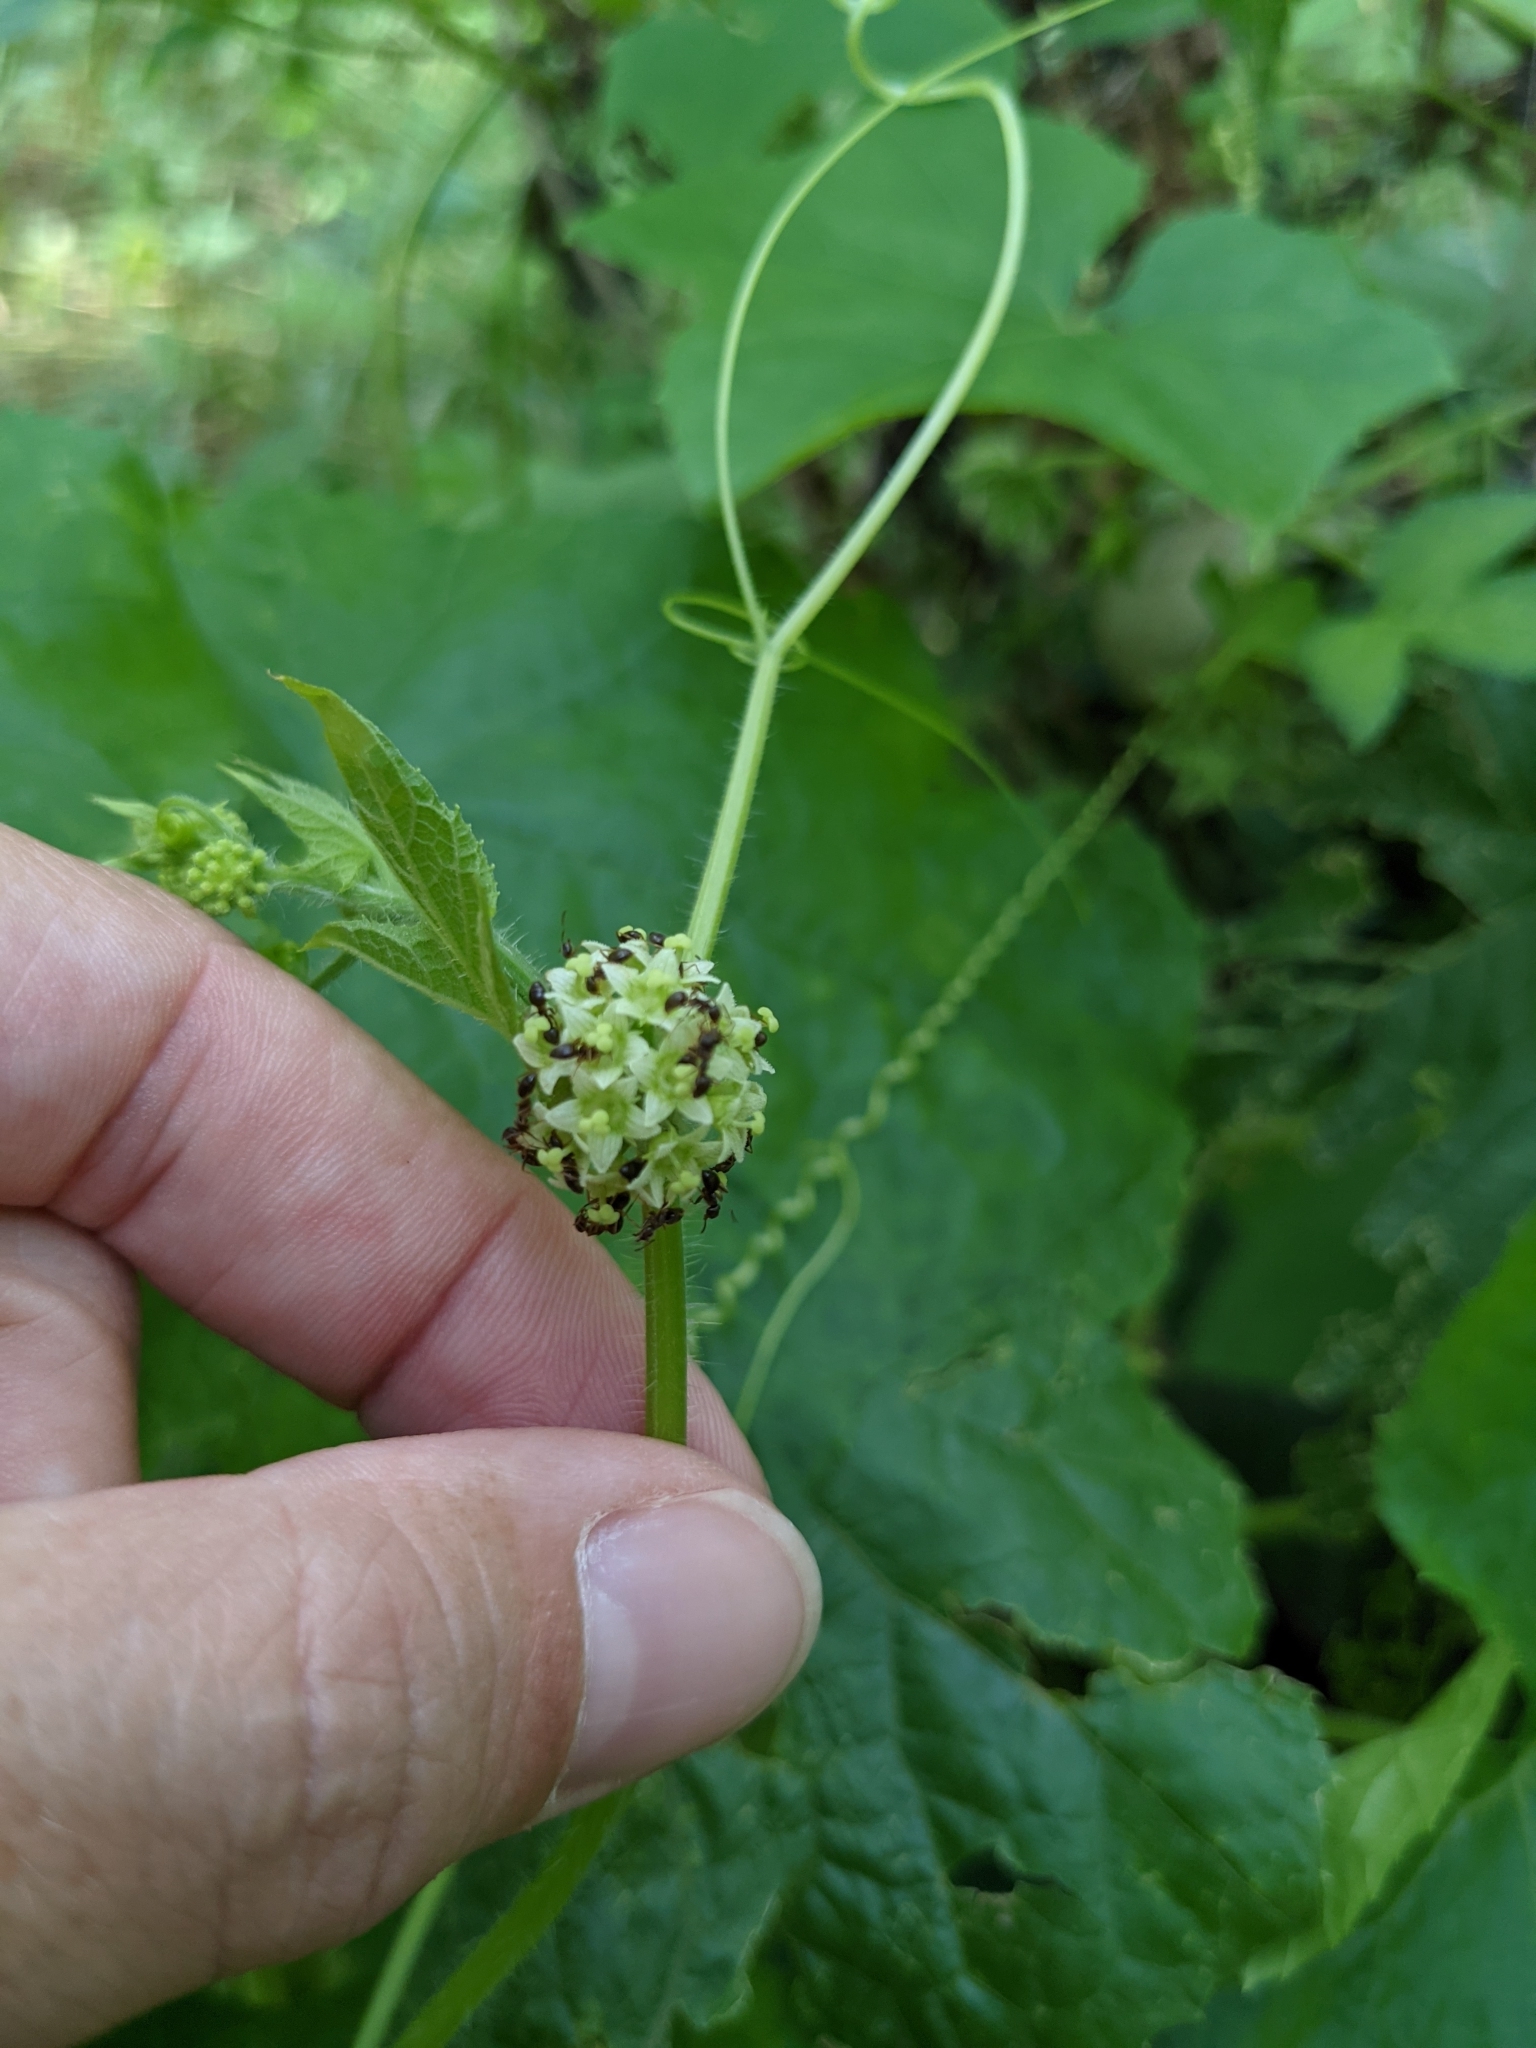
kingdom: Plantae
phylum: Tracheophyta
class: Magnoliopsida
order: Cucurbitales
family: Cucurbitaceae
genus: Sicyos
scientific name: Sicyos angulatus
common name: Angled burr cucumber
